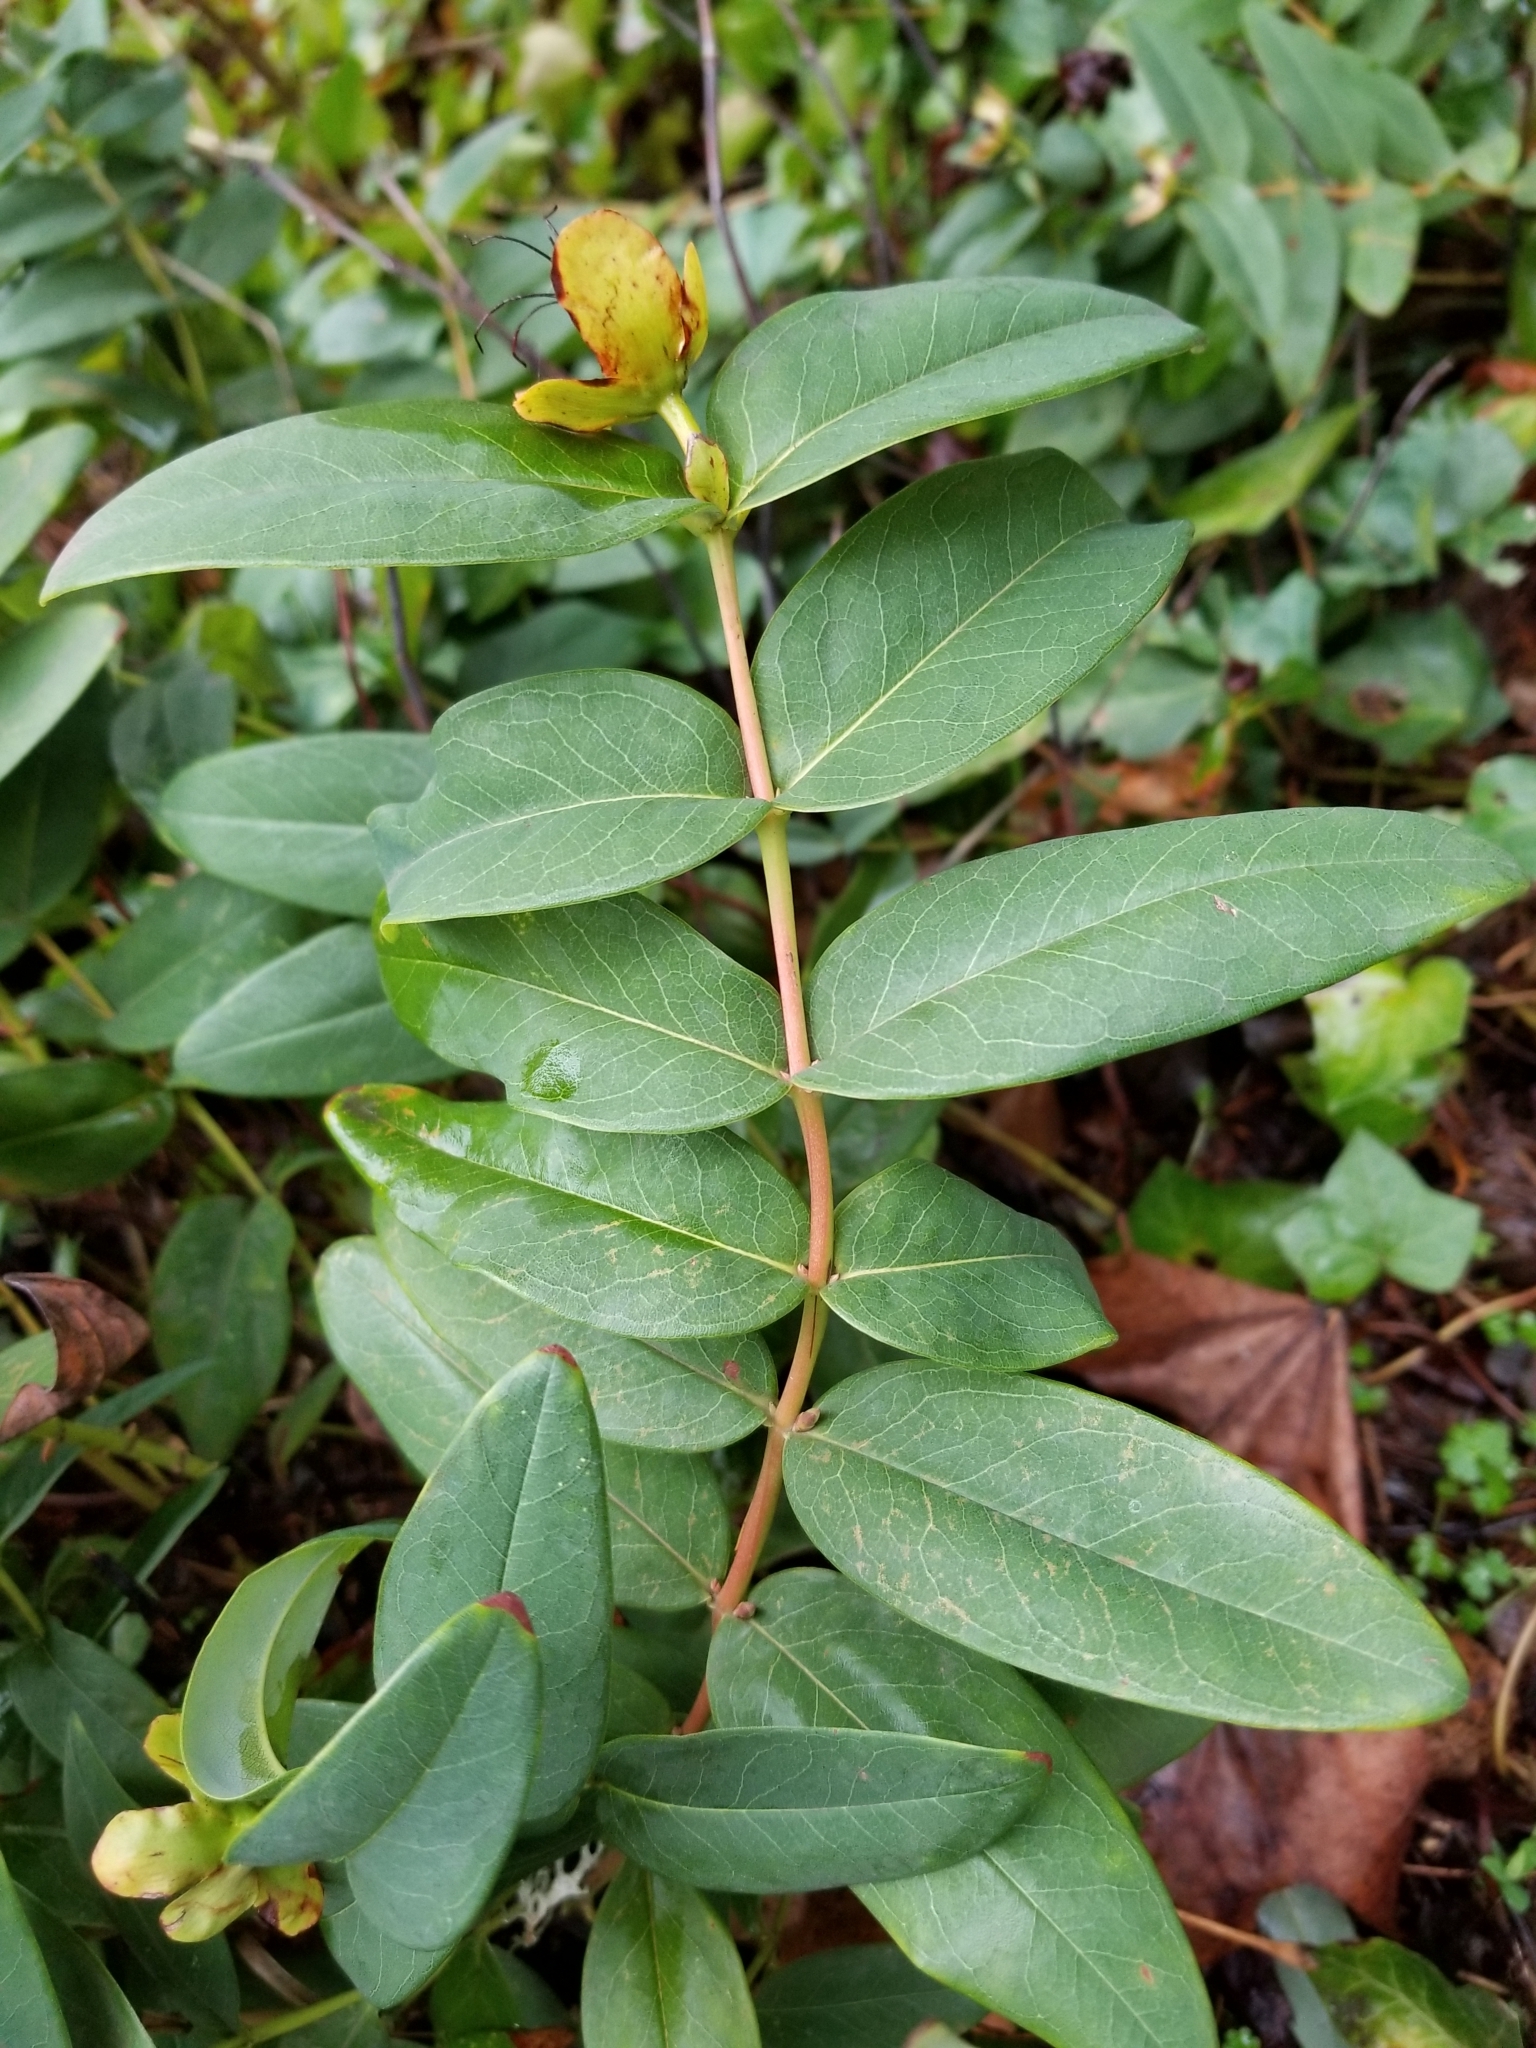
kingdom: Plantae
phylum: Tracheophyta
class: Magnoliopsida
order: Malpighiales
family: Hypericaceae
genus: Hypericum
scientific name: Hypericum calycinum
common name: Rose-of-sharon
